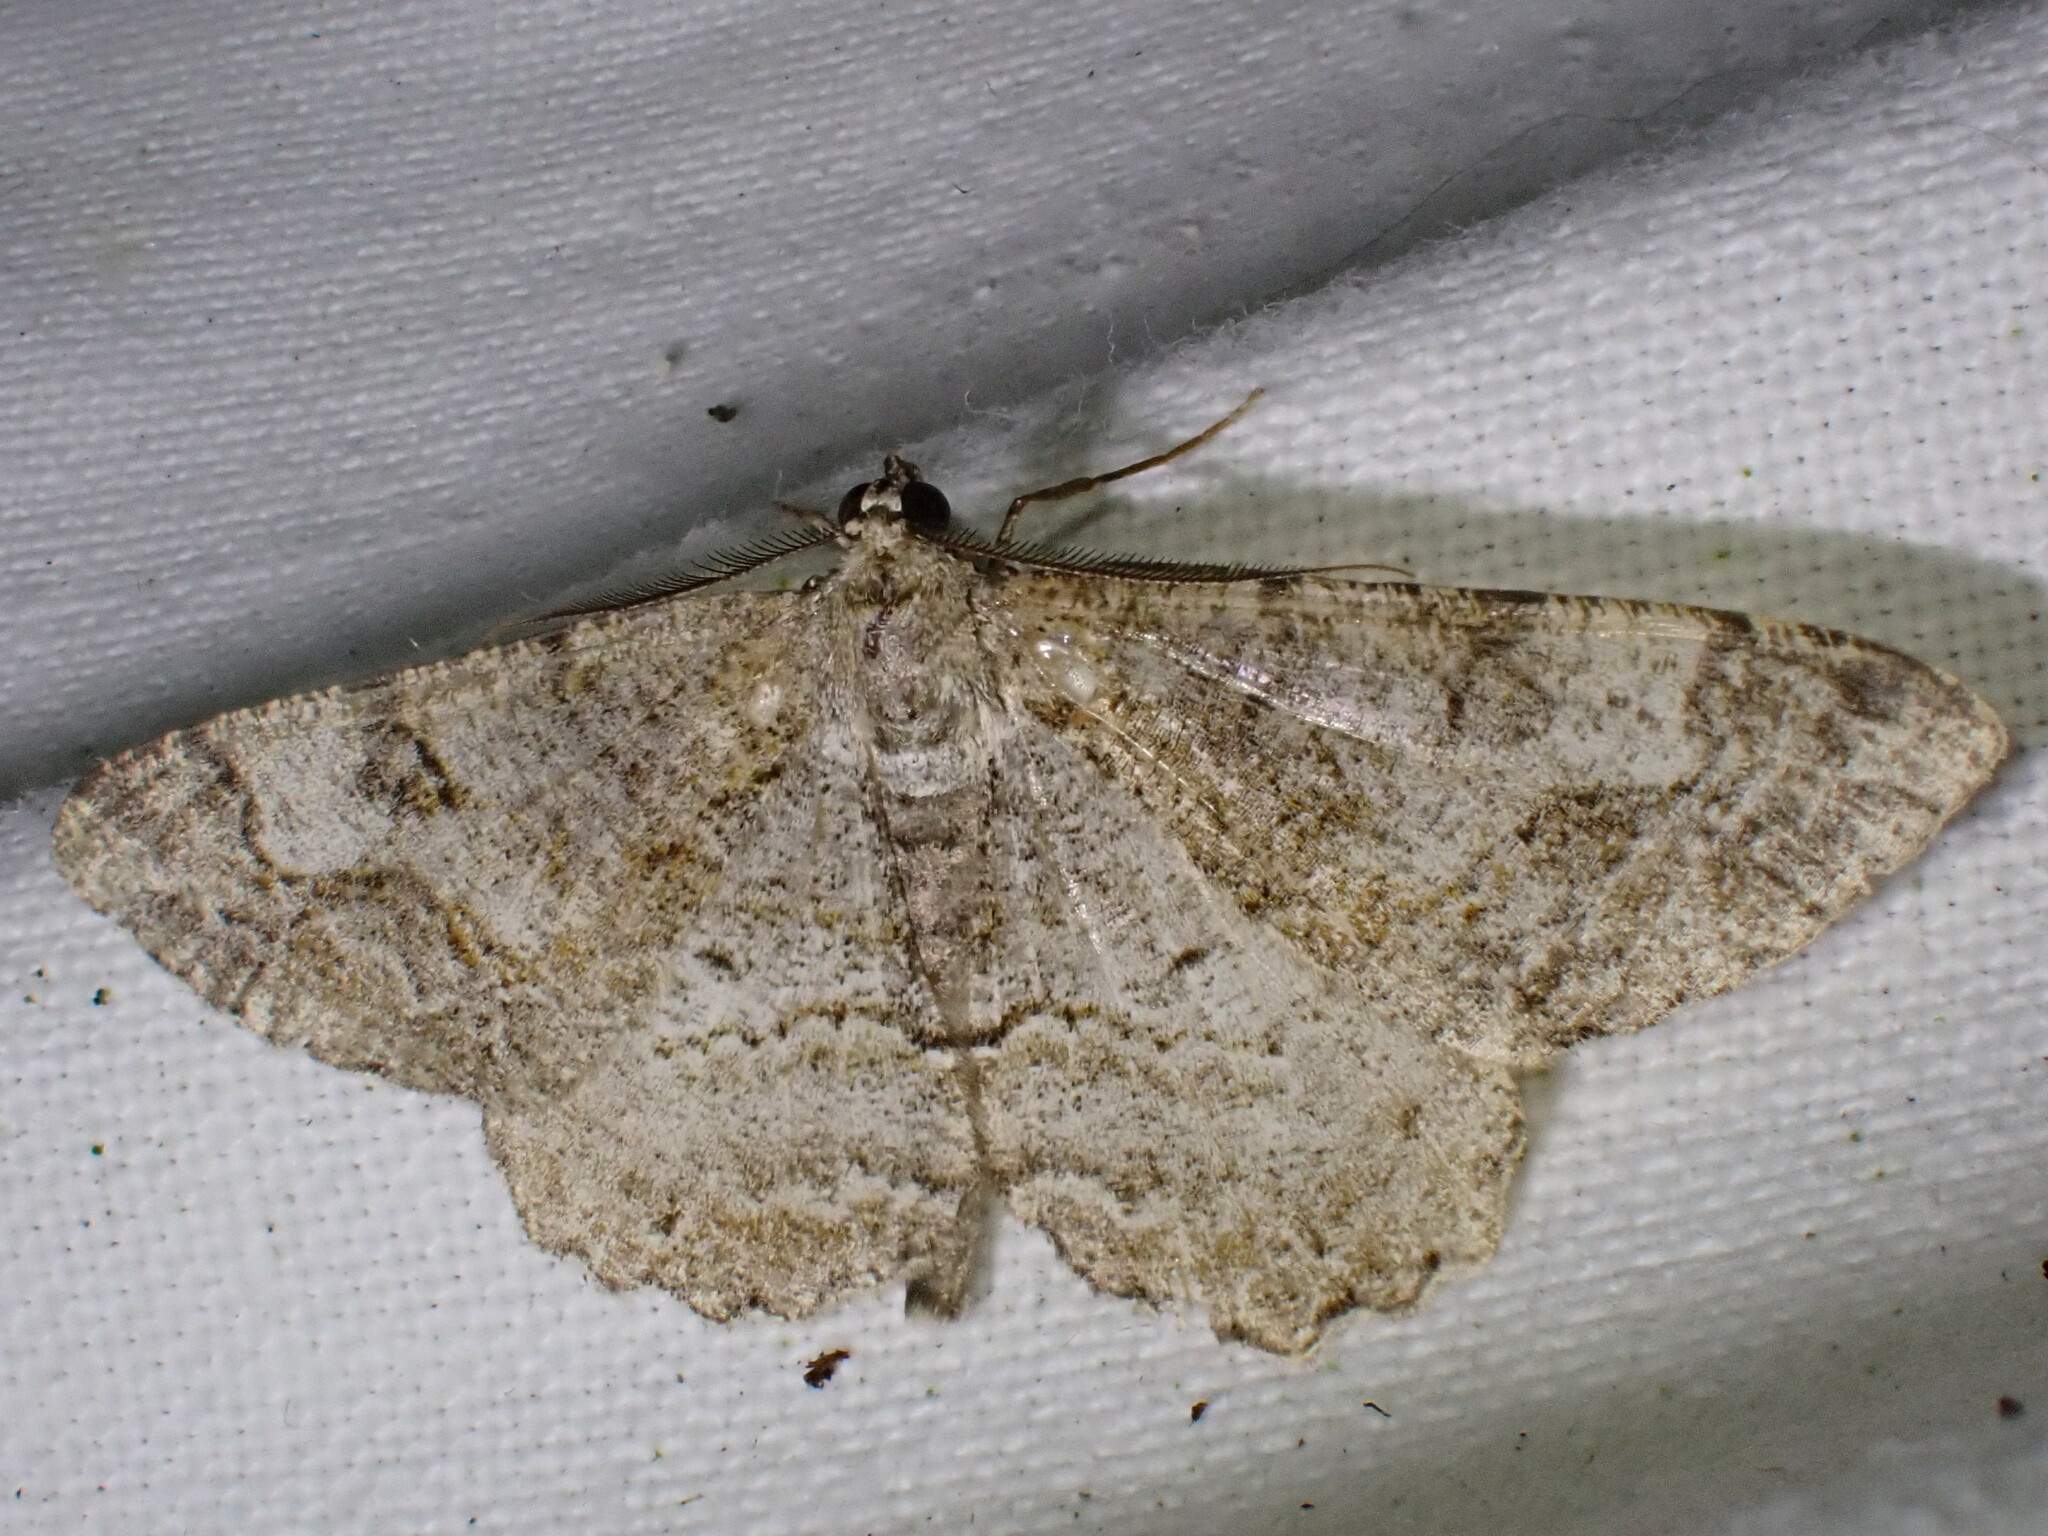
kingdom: Animalia
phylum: Arthropoda
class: Insecta
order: Lepidoptera
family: Geometridae
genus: Alcis
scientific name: Alcis repandata
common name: Mottled beauty
